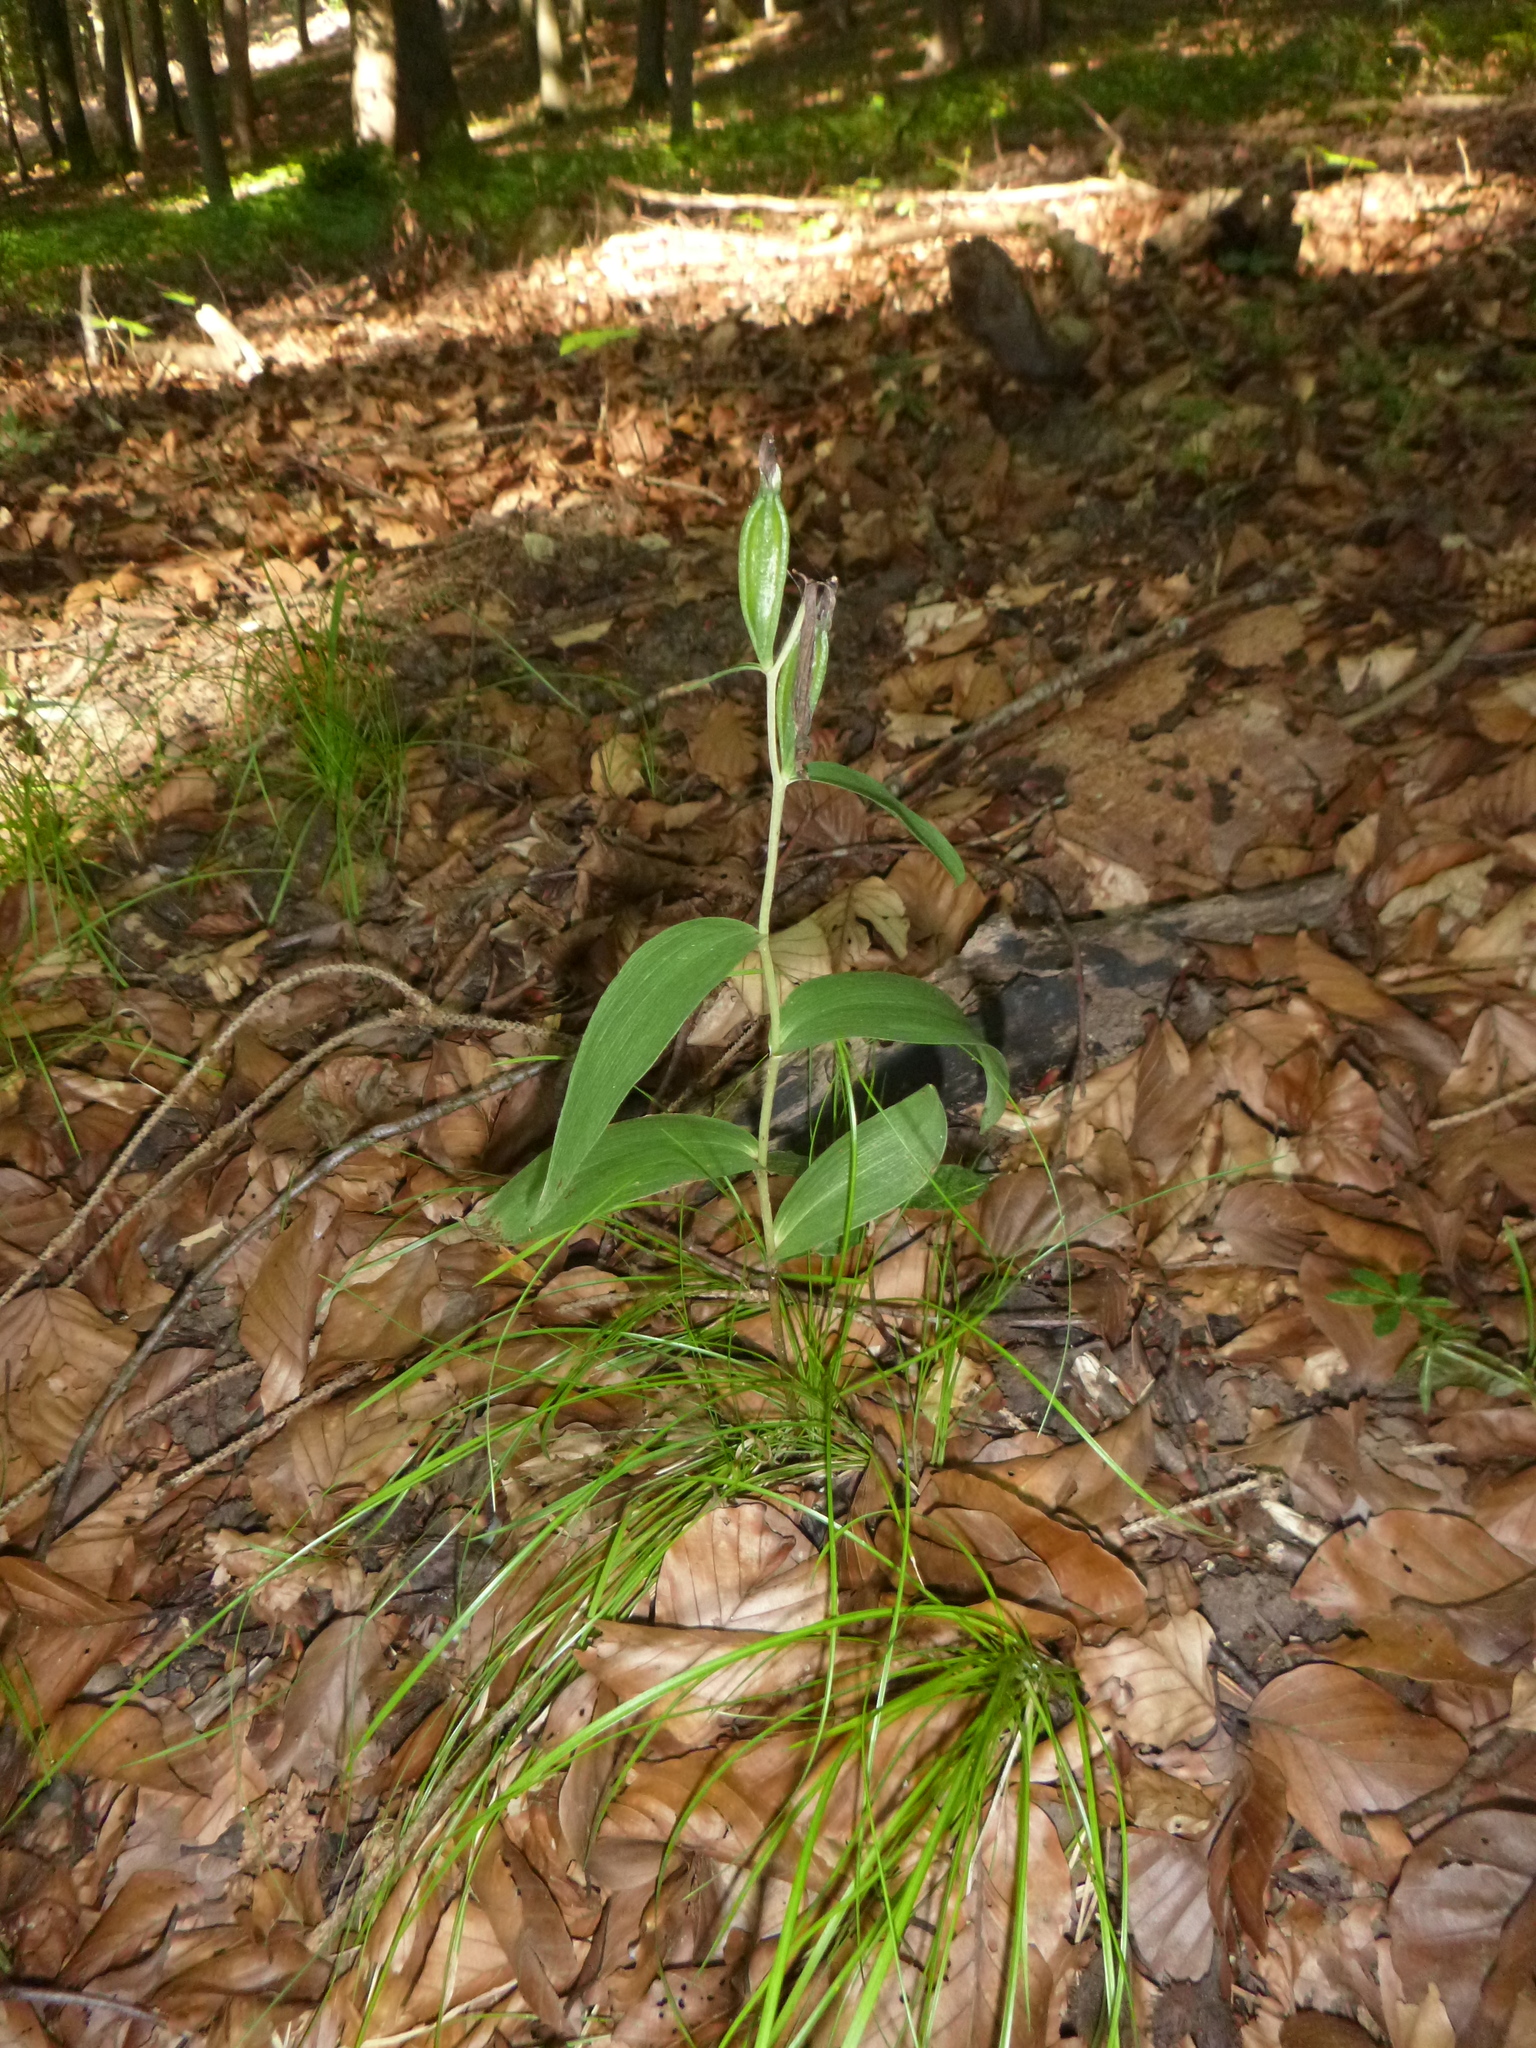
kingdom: Plantae
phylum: Tracheophyta
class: Liliopsida
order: Asparagales
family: Orchidaceae
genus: Cephalanthera
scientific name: Cephalanthera rubra
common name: Red helleborine
